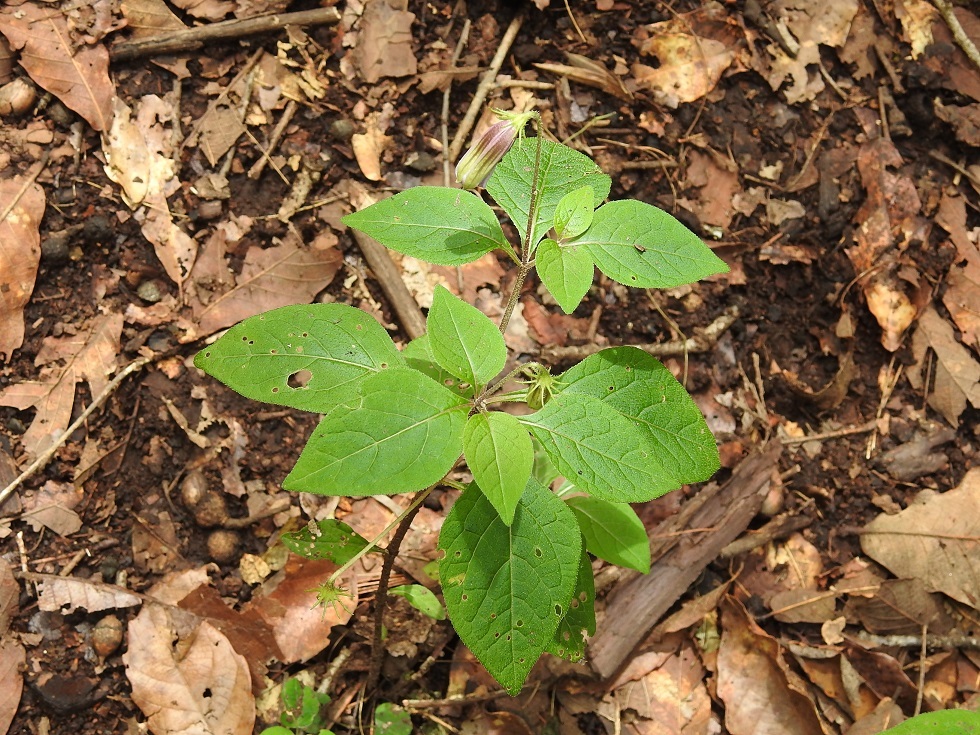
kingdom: Plantae
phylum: Tracheophyta
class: Magnoliopsida
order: Solanales
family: Solanaceae
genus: Lycianthes
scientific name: Lycianthes ciliolata
